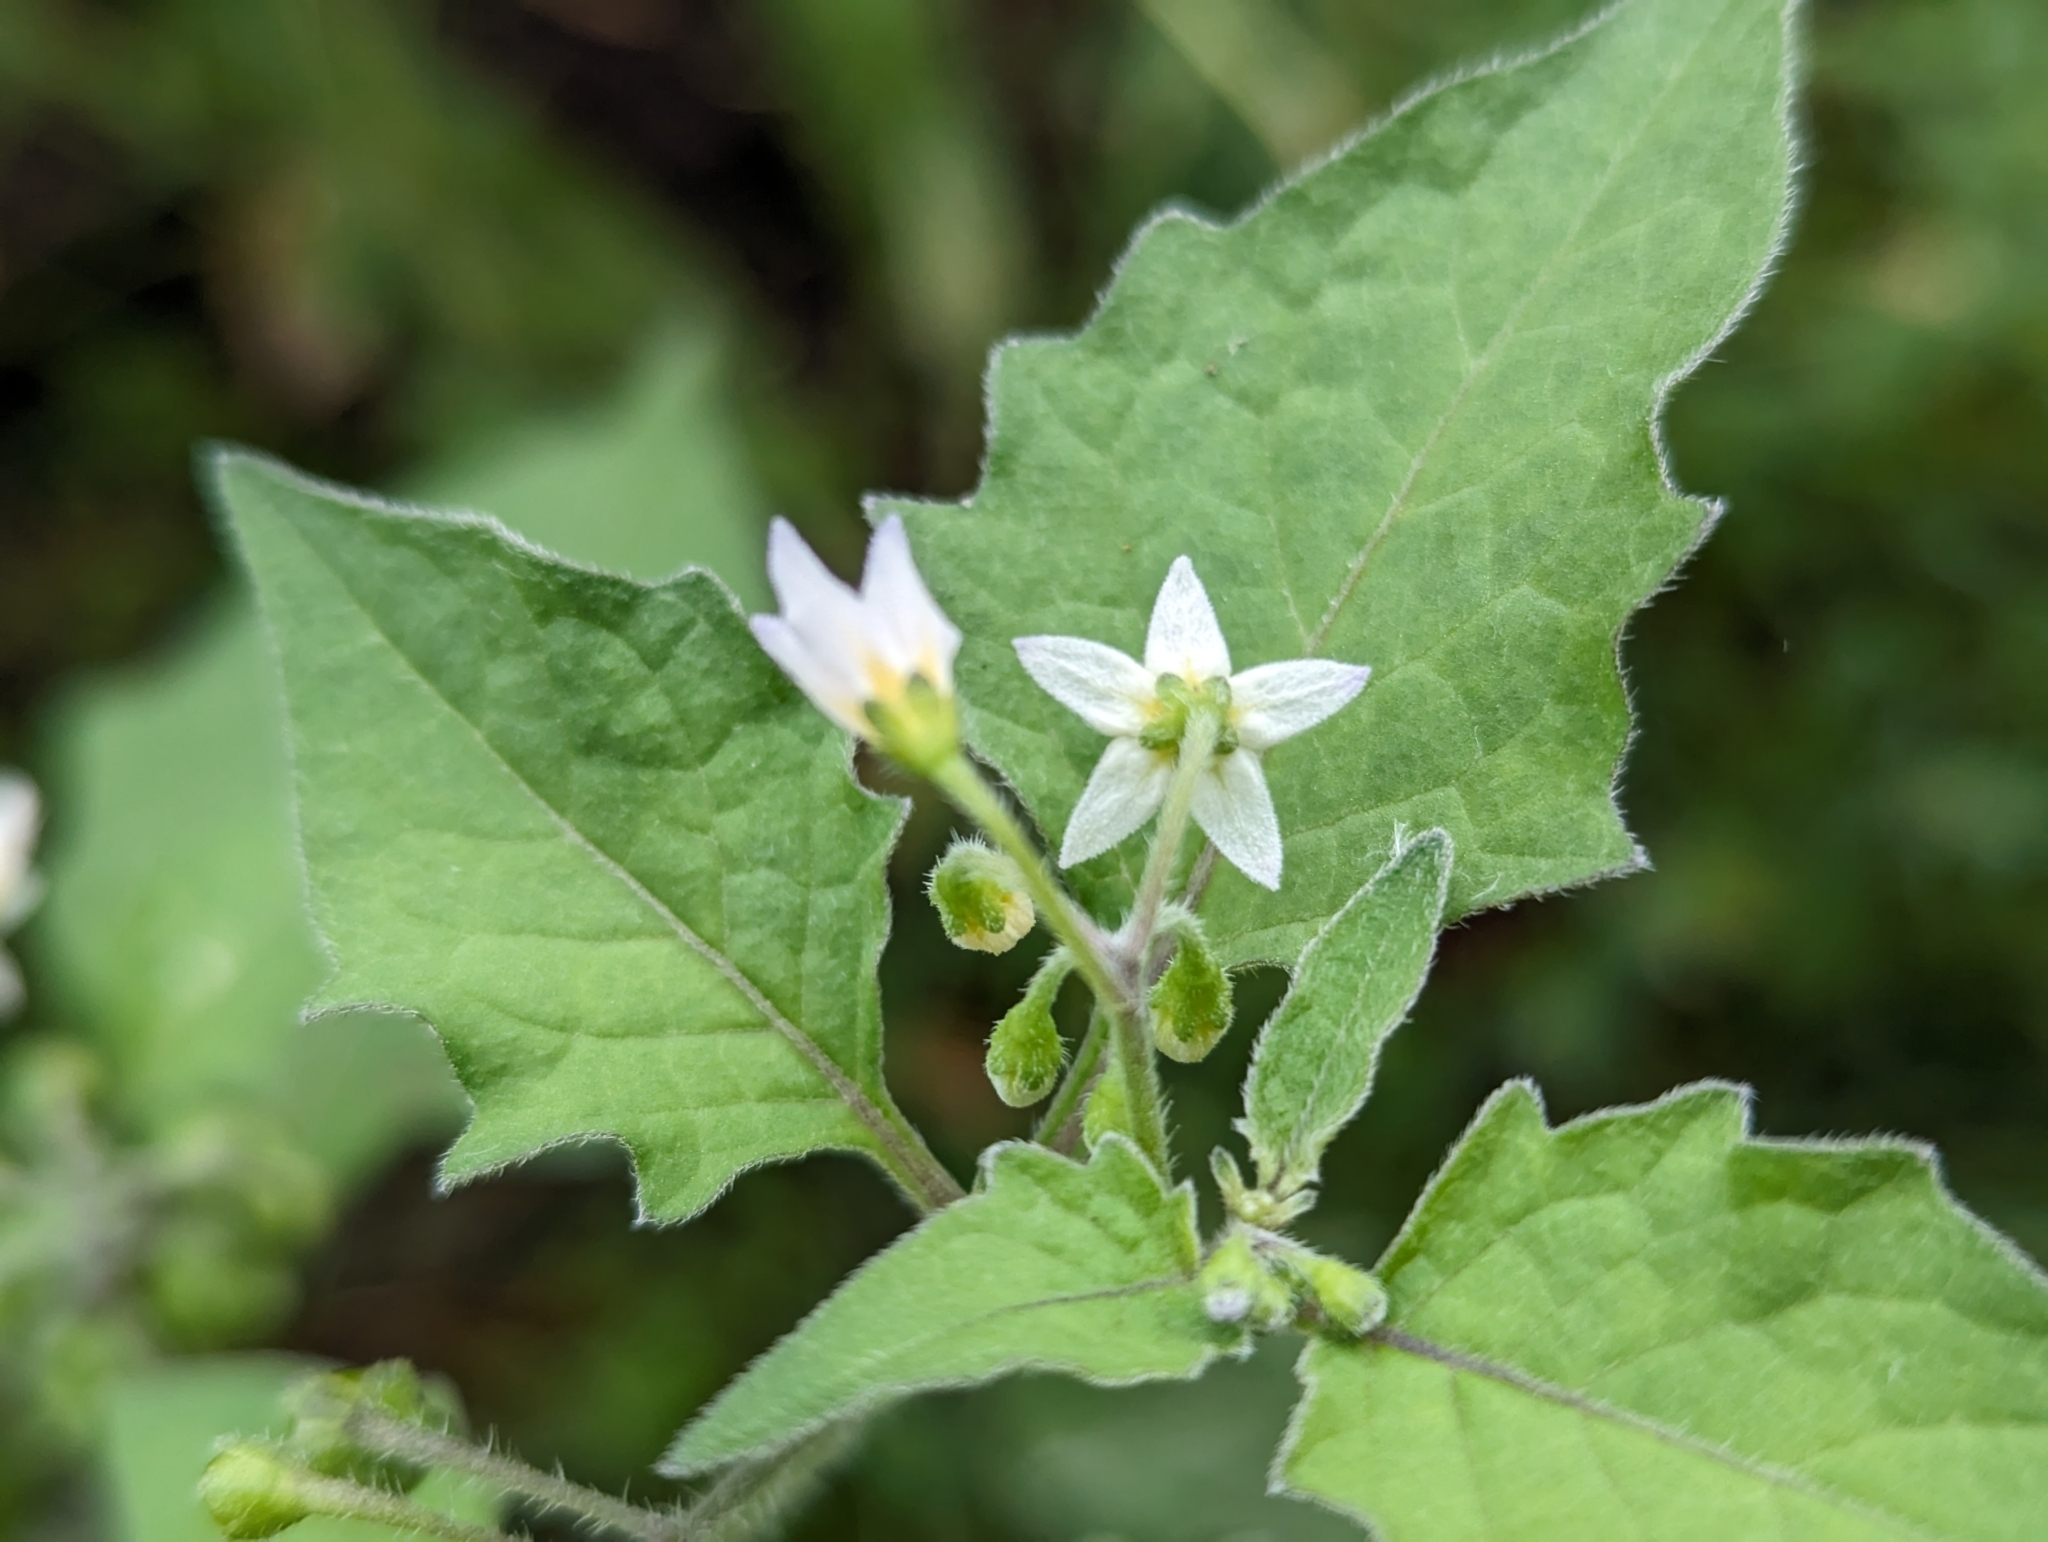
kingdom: Plantae
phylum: Tracheophyta
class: Magnoliopsida
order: Solanales
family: Solanaceae
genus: Solanum
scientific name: Solanum nigrum
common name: Black nightshade
